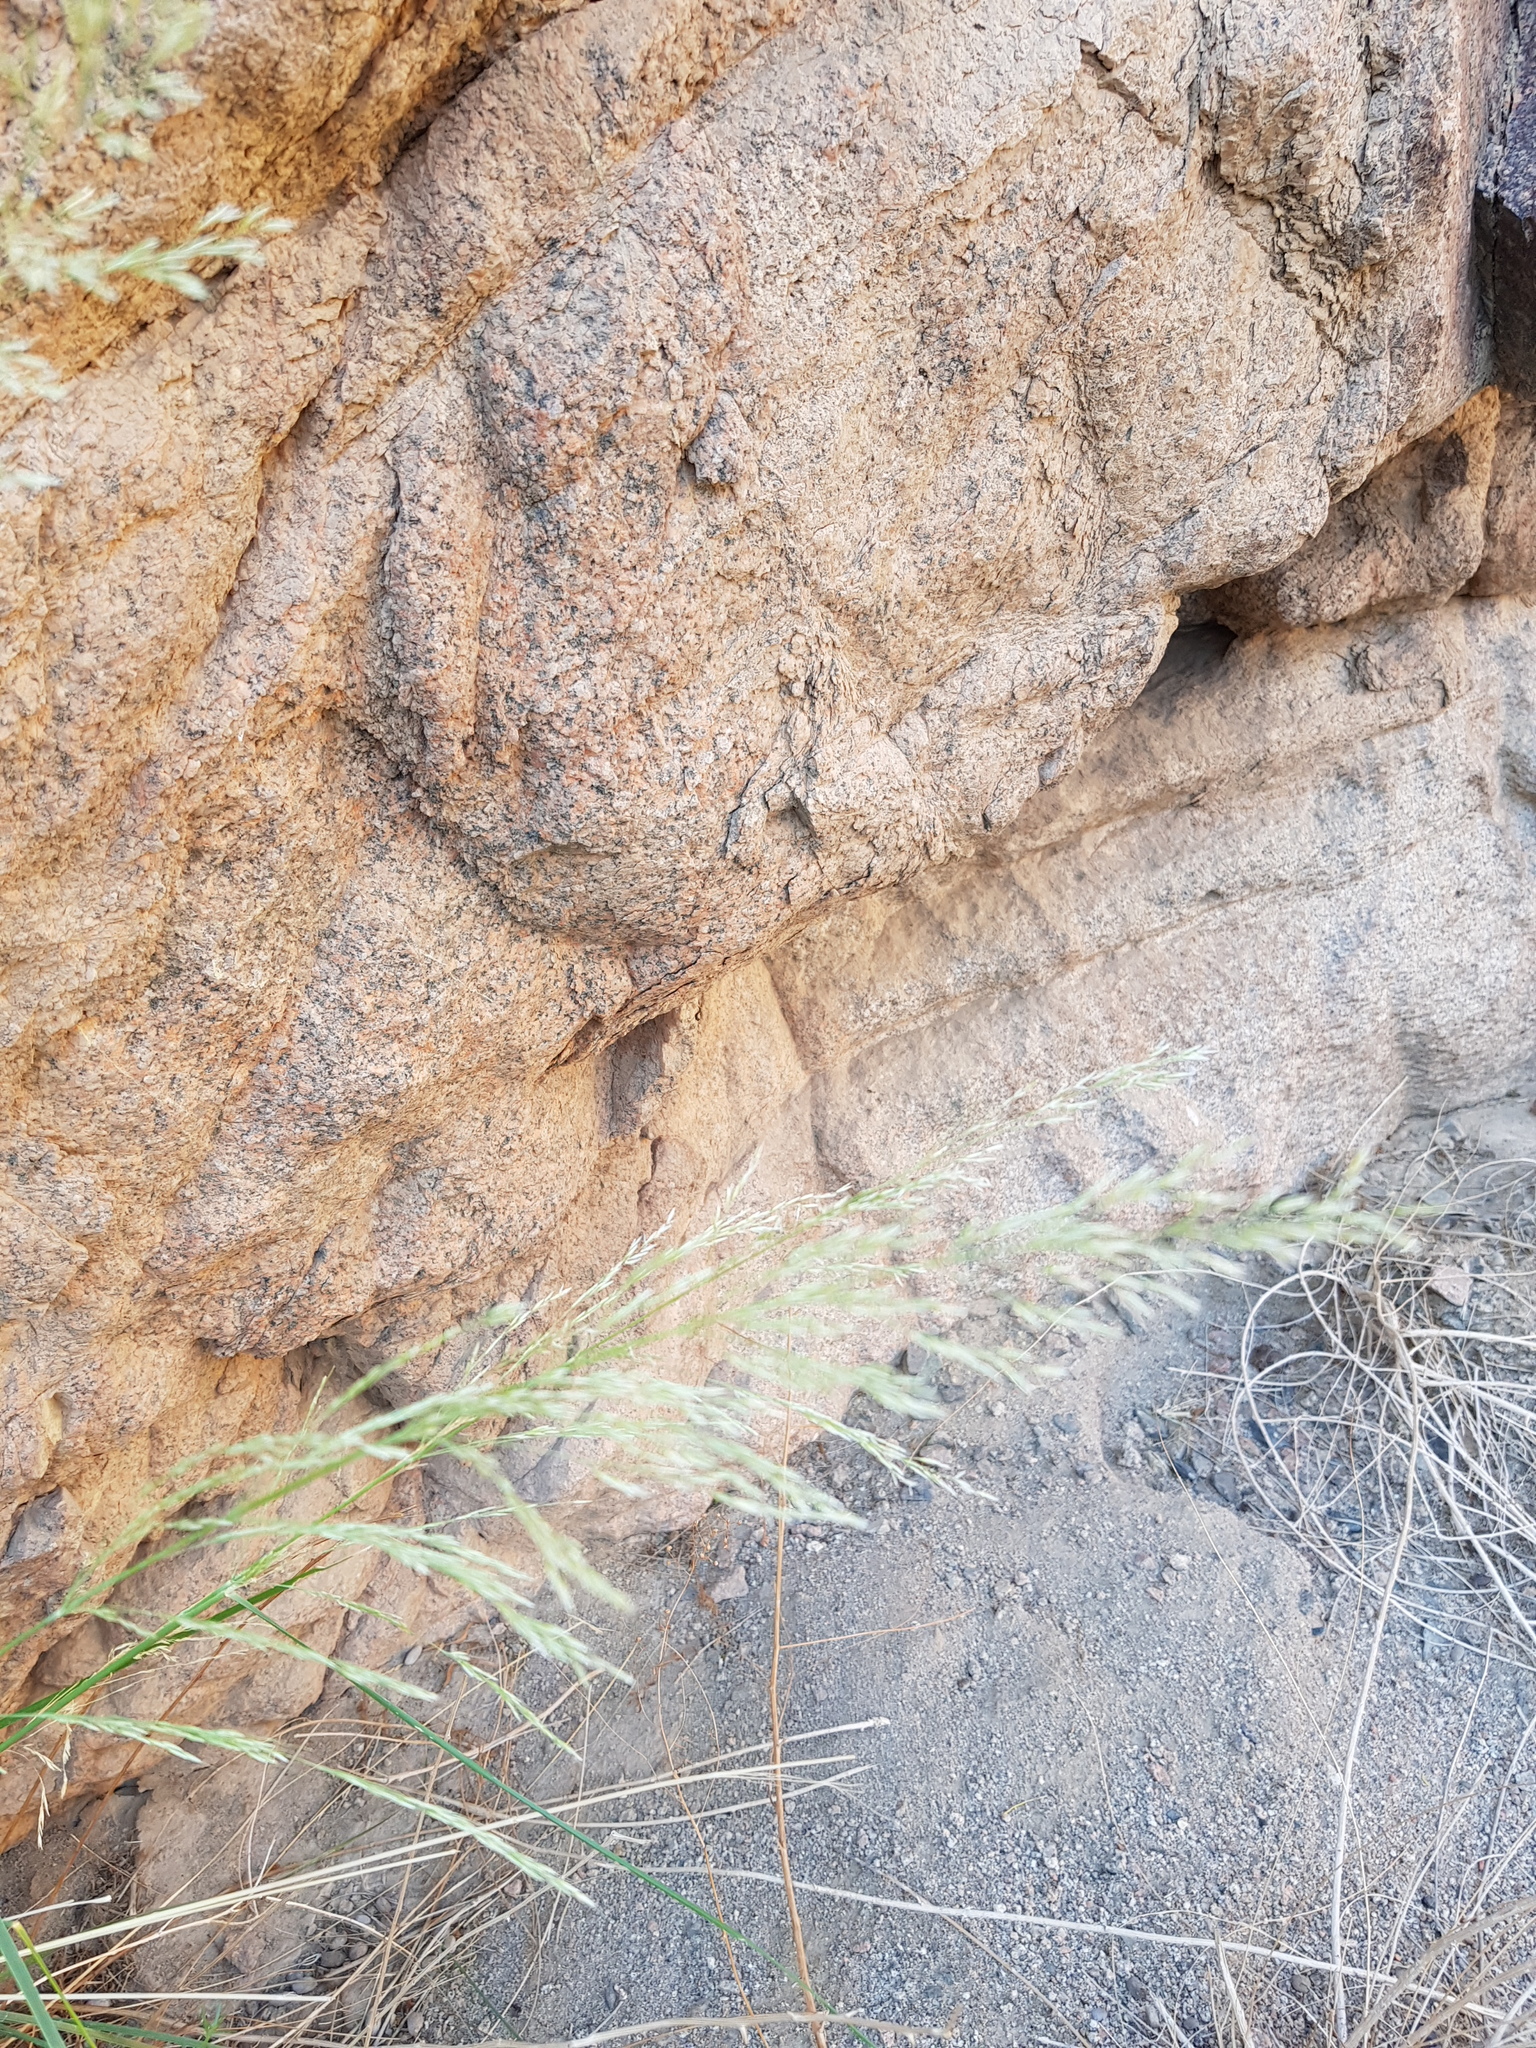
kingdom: Plantae
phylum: Tracheophyta
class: Liliopsida
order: Poales
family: Poaceae
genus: Neotrinia
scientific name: Neotrinia splendens
